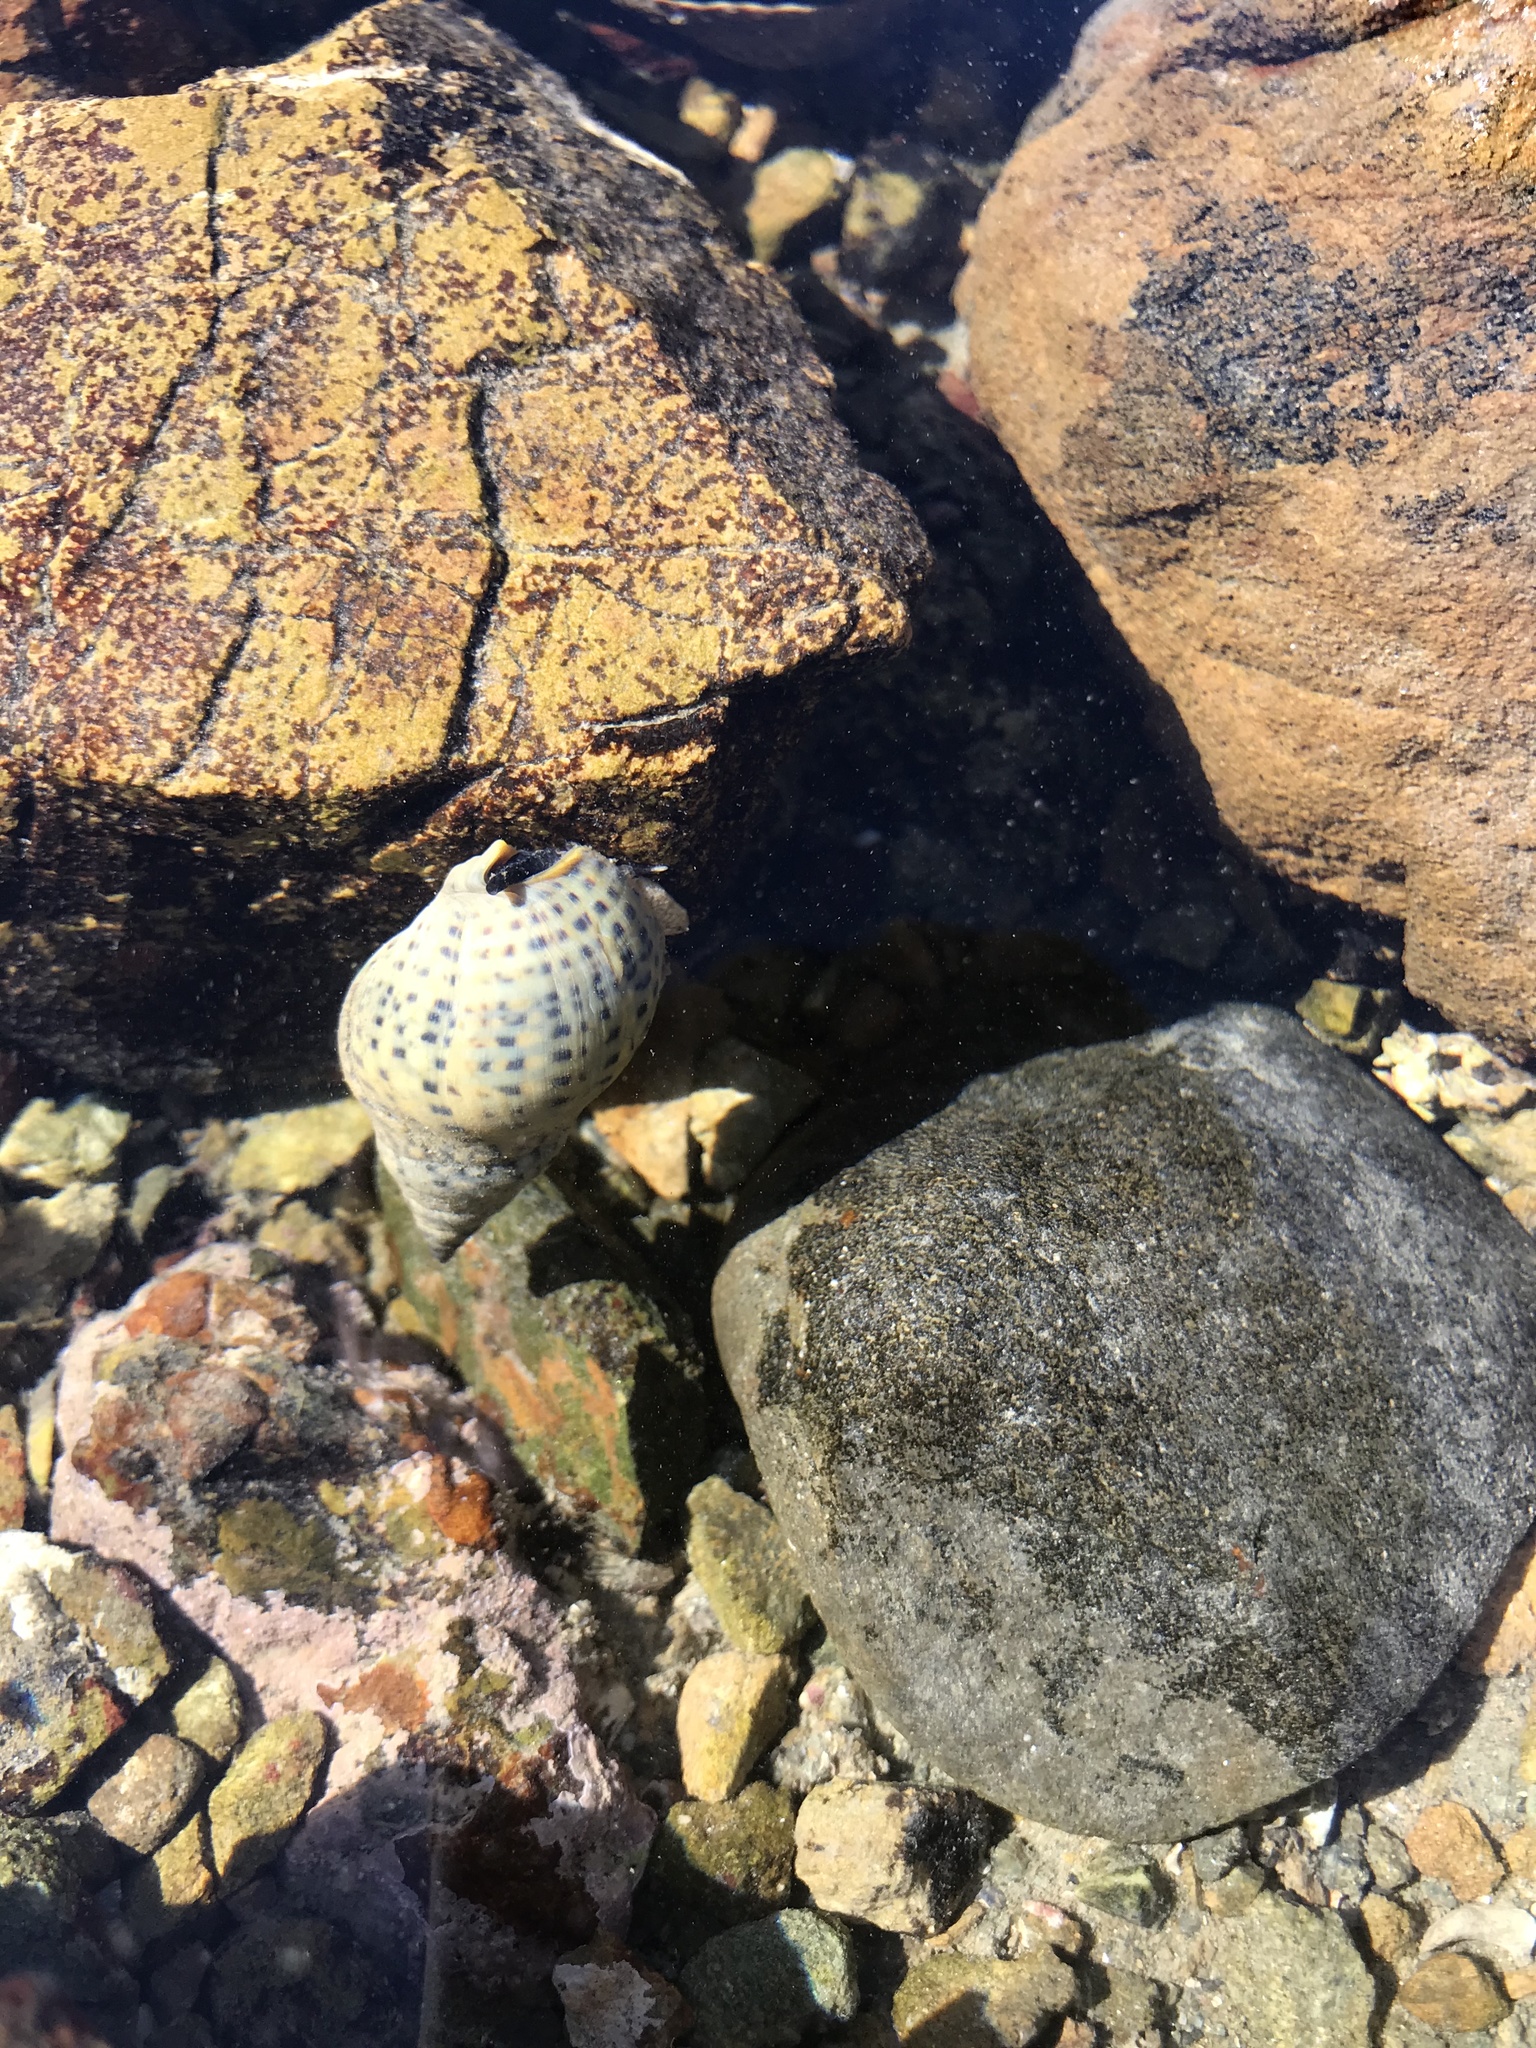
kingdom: Animalia
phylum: Mollusca
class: Gastropoda
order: Neogastropoda
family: Cominellidae
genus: Cominella
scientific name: Cominella maculosa
